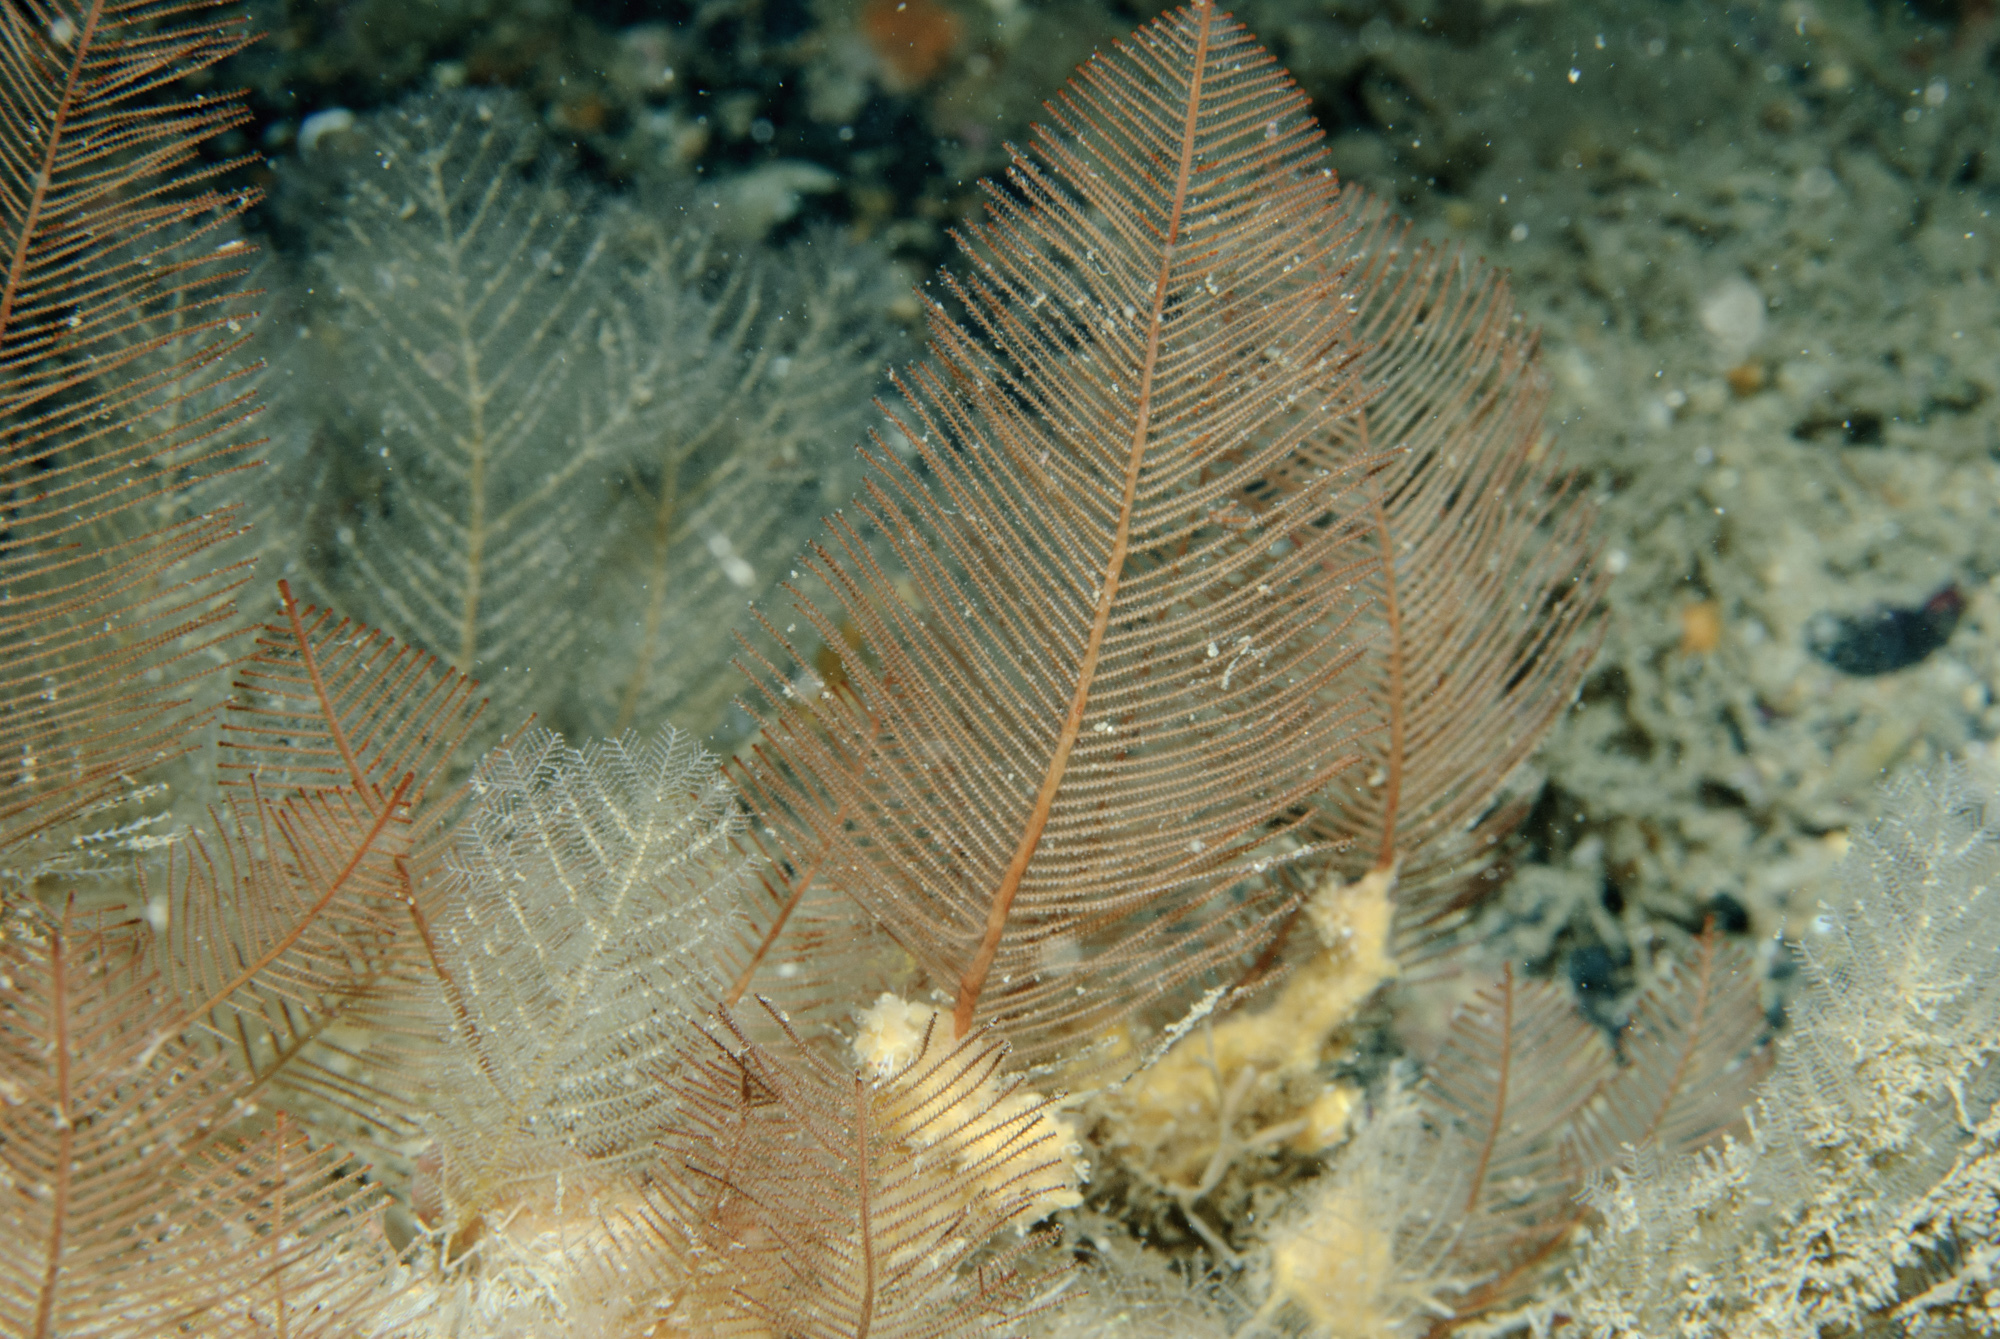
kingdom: Animalia
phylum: Cnidaria
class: Hydrozoa
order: Leptothecata
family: Sertulariidae
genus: Diphasia
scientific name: Diphasia alata
